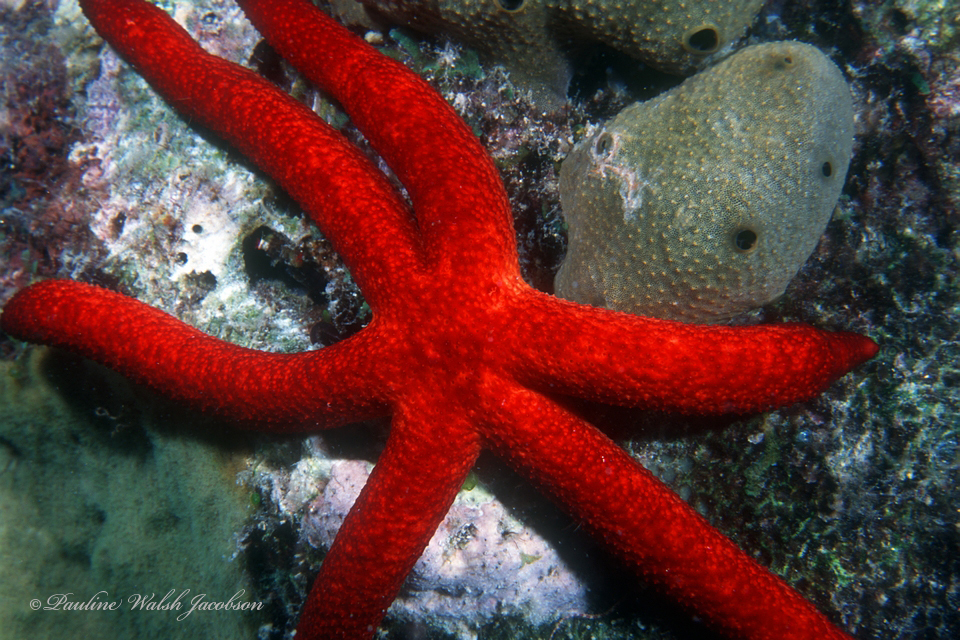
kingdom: Animalia
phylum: Echinodermata
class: Asteroidea
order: Spinulosida
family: Echinasteridae
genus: Echinaster
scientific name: Echinaster luzonicus
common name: Luzon seastar
